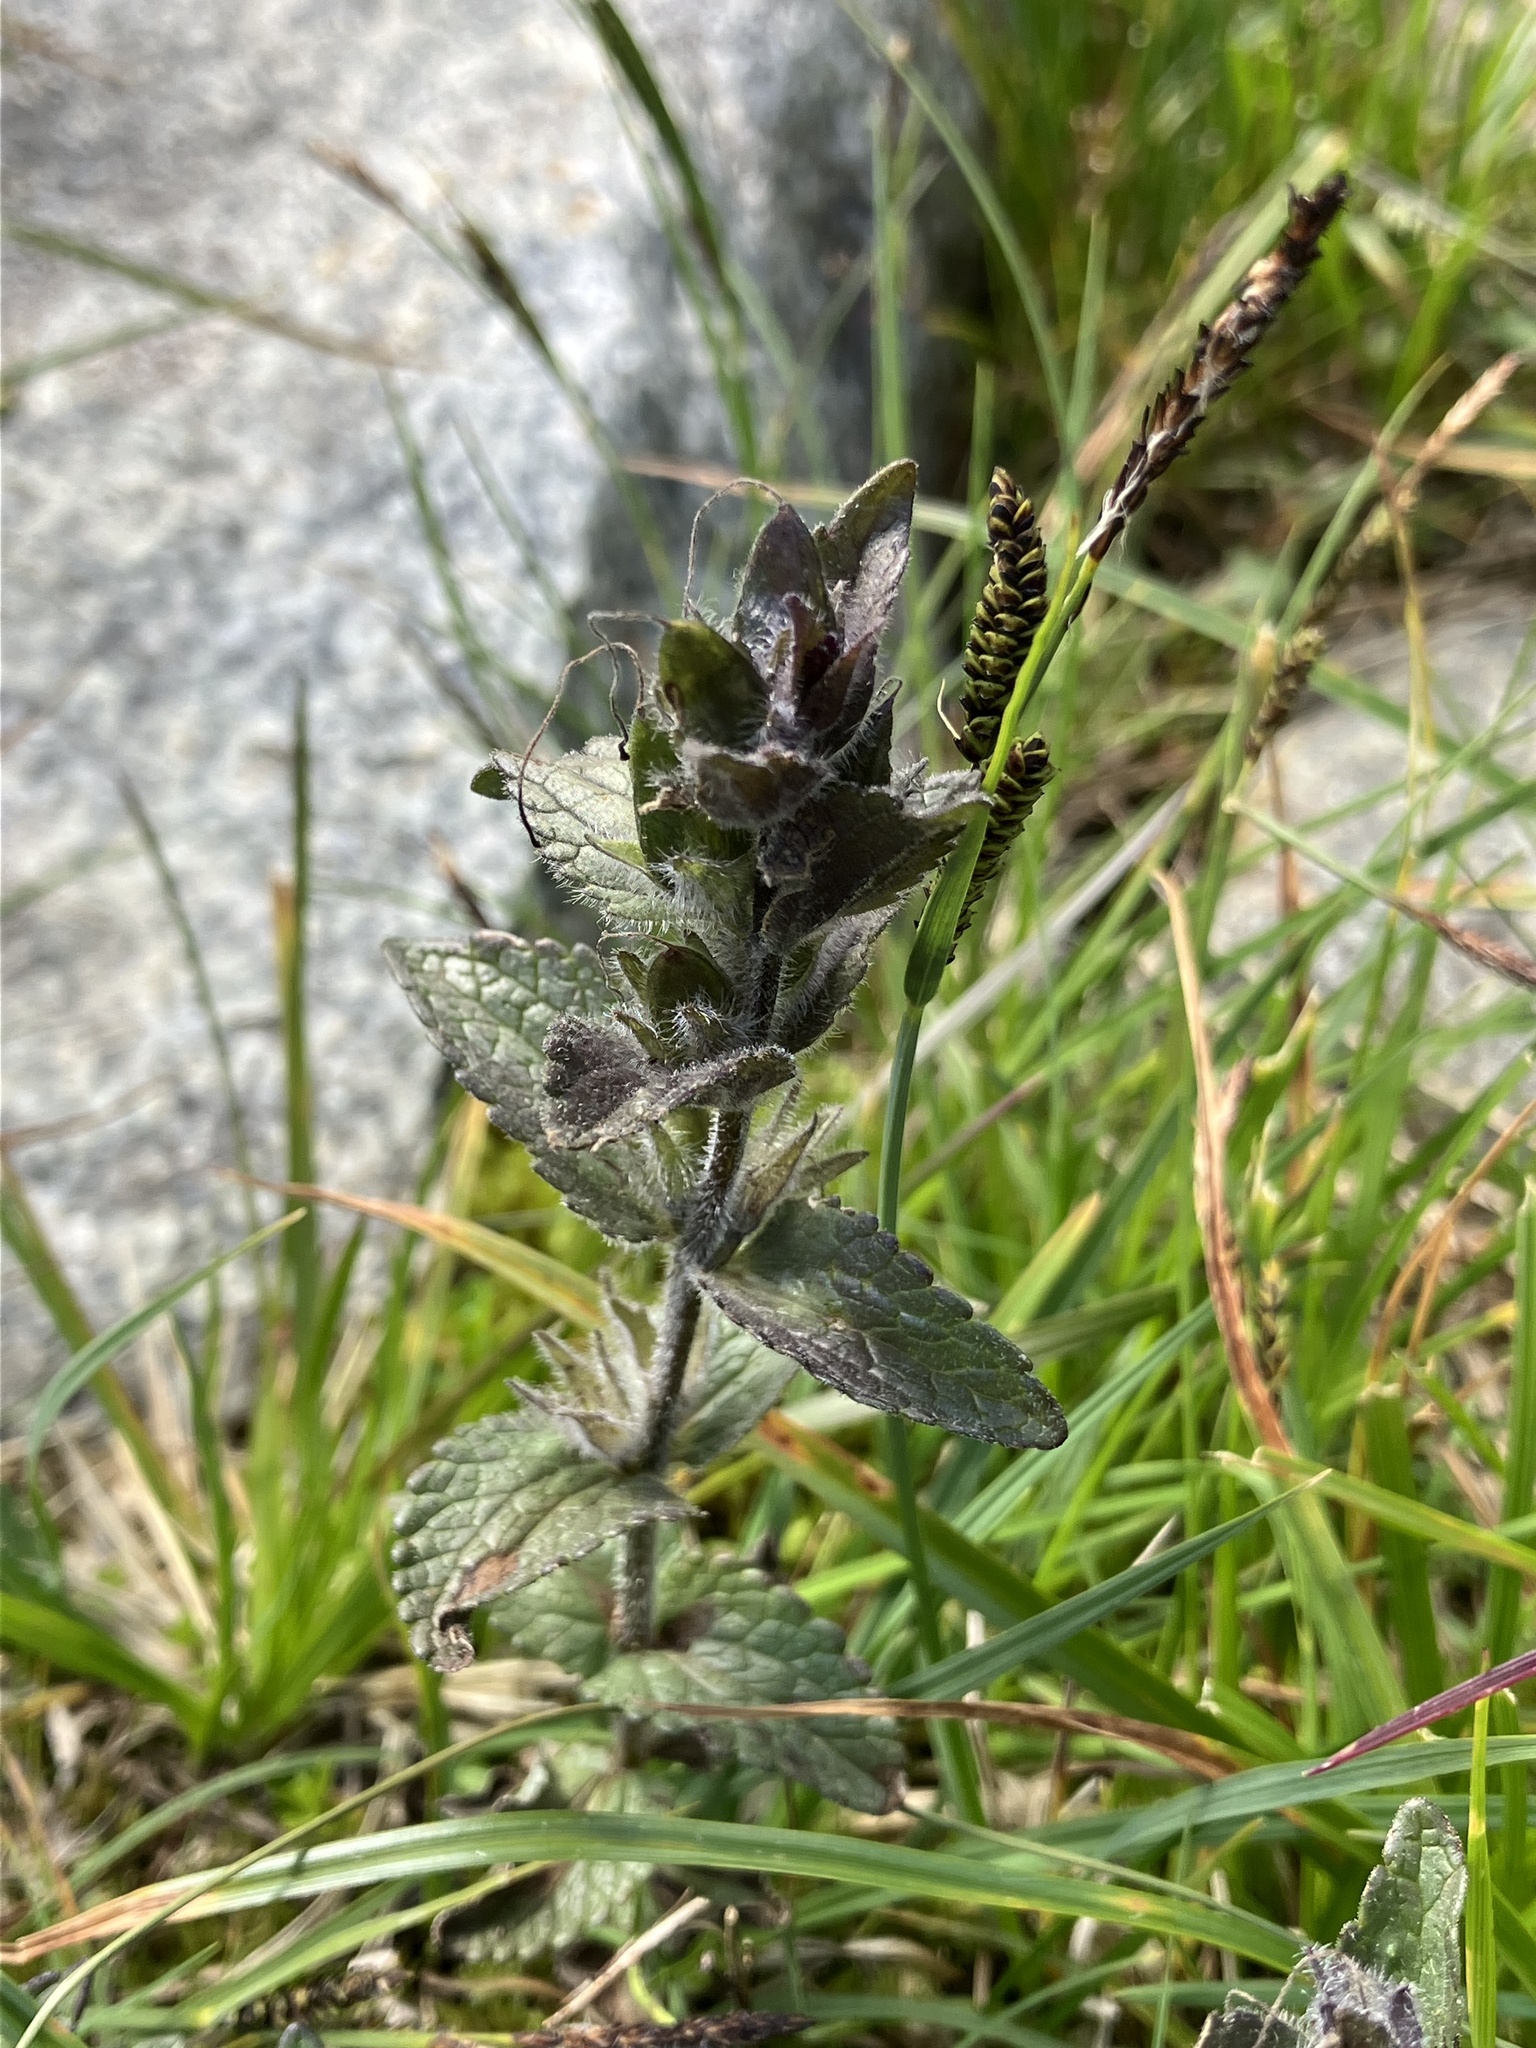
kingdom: Plantae
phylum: Tracheophyta
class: Magnoliopsida
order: Lamiales
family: Orobanchaceae
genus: Bartsia
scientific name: Bartsia alpina
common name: Alpine bartsia
